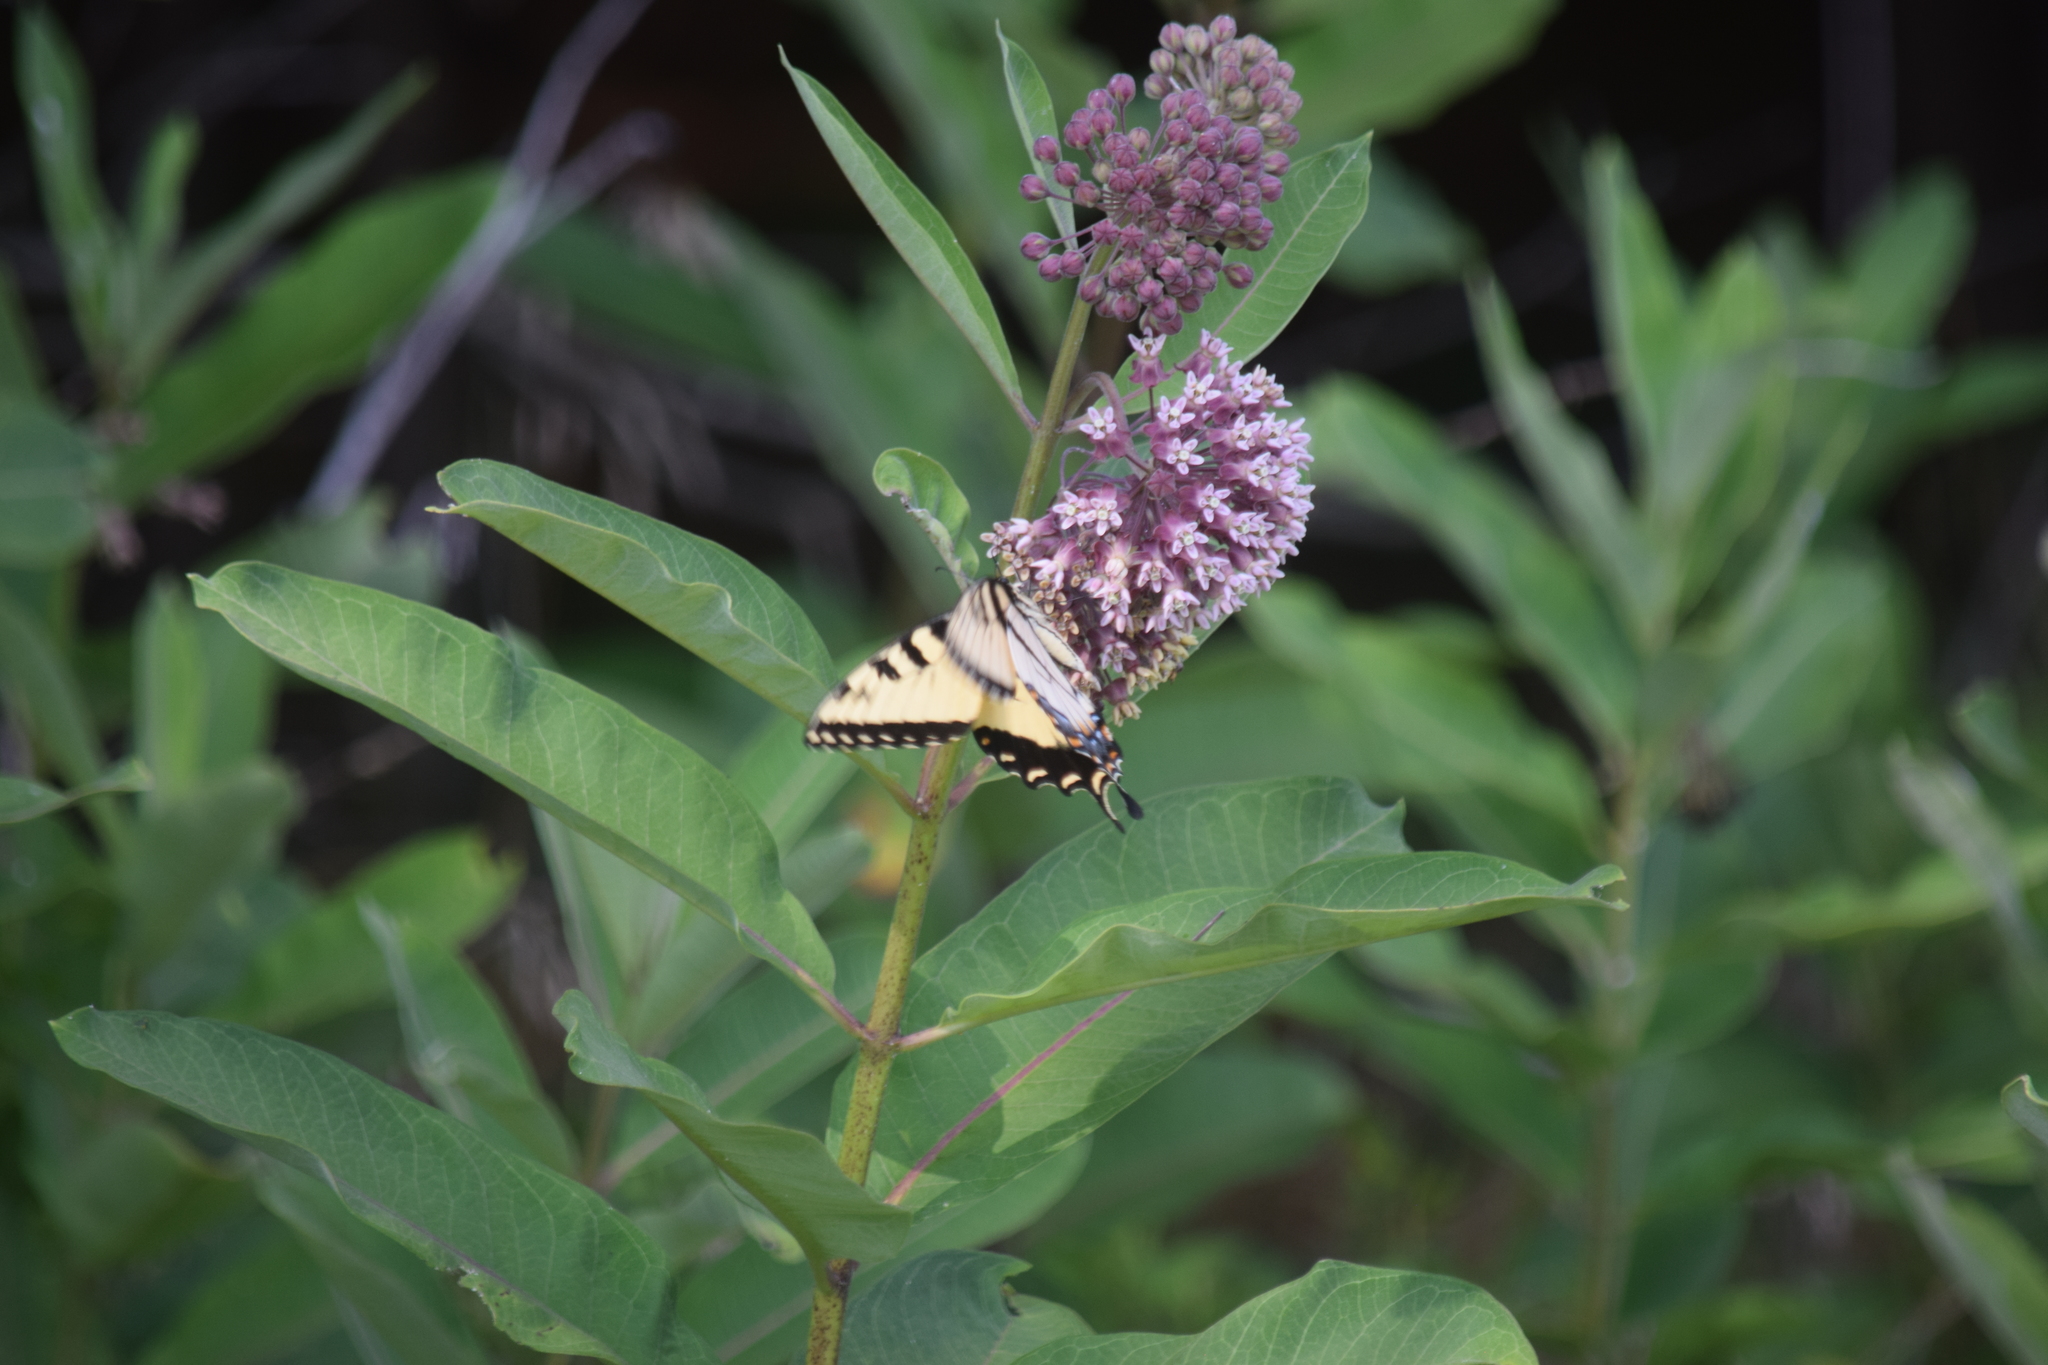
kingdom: Animalia
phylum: Arthropoda
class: Insecta
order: Lepidoptera
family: Papilionidae
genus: Papilio
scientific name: Papilio glaucus
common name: Tiger swallowtail
